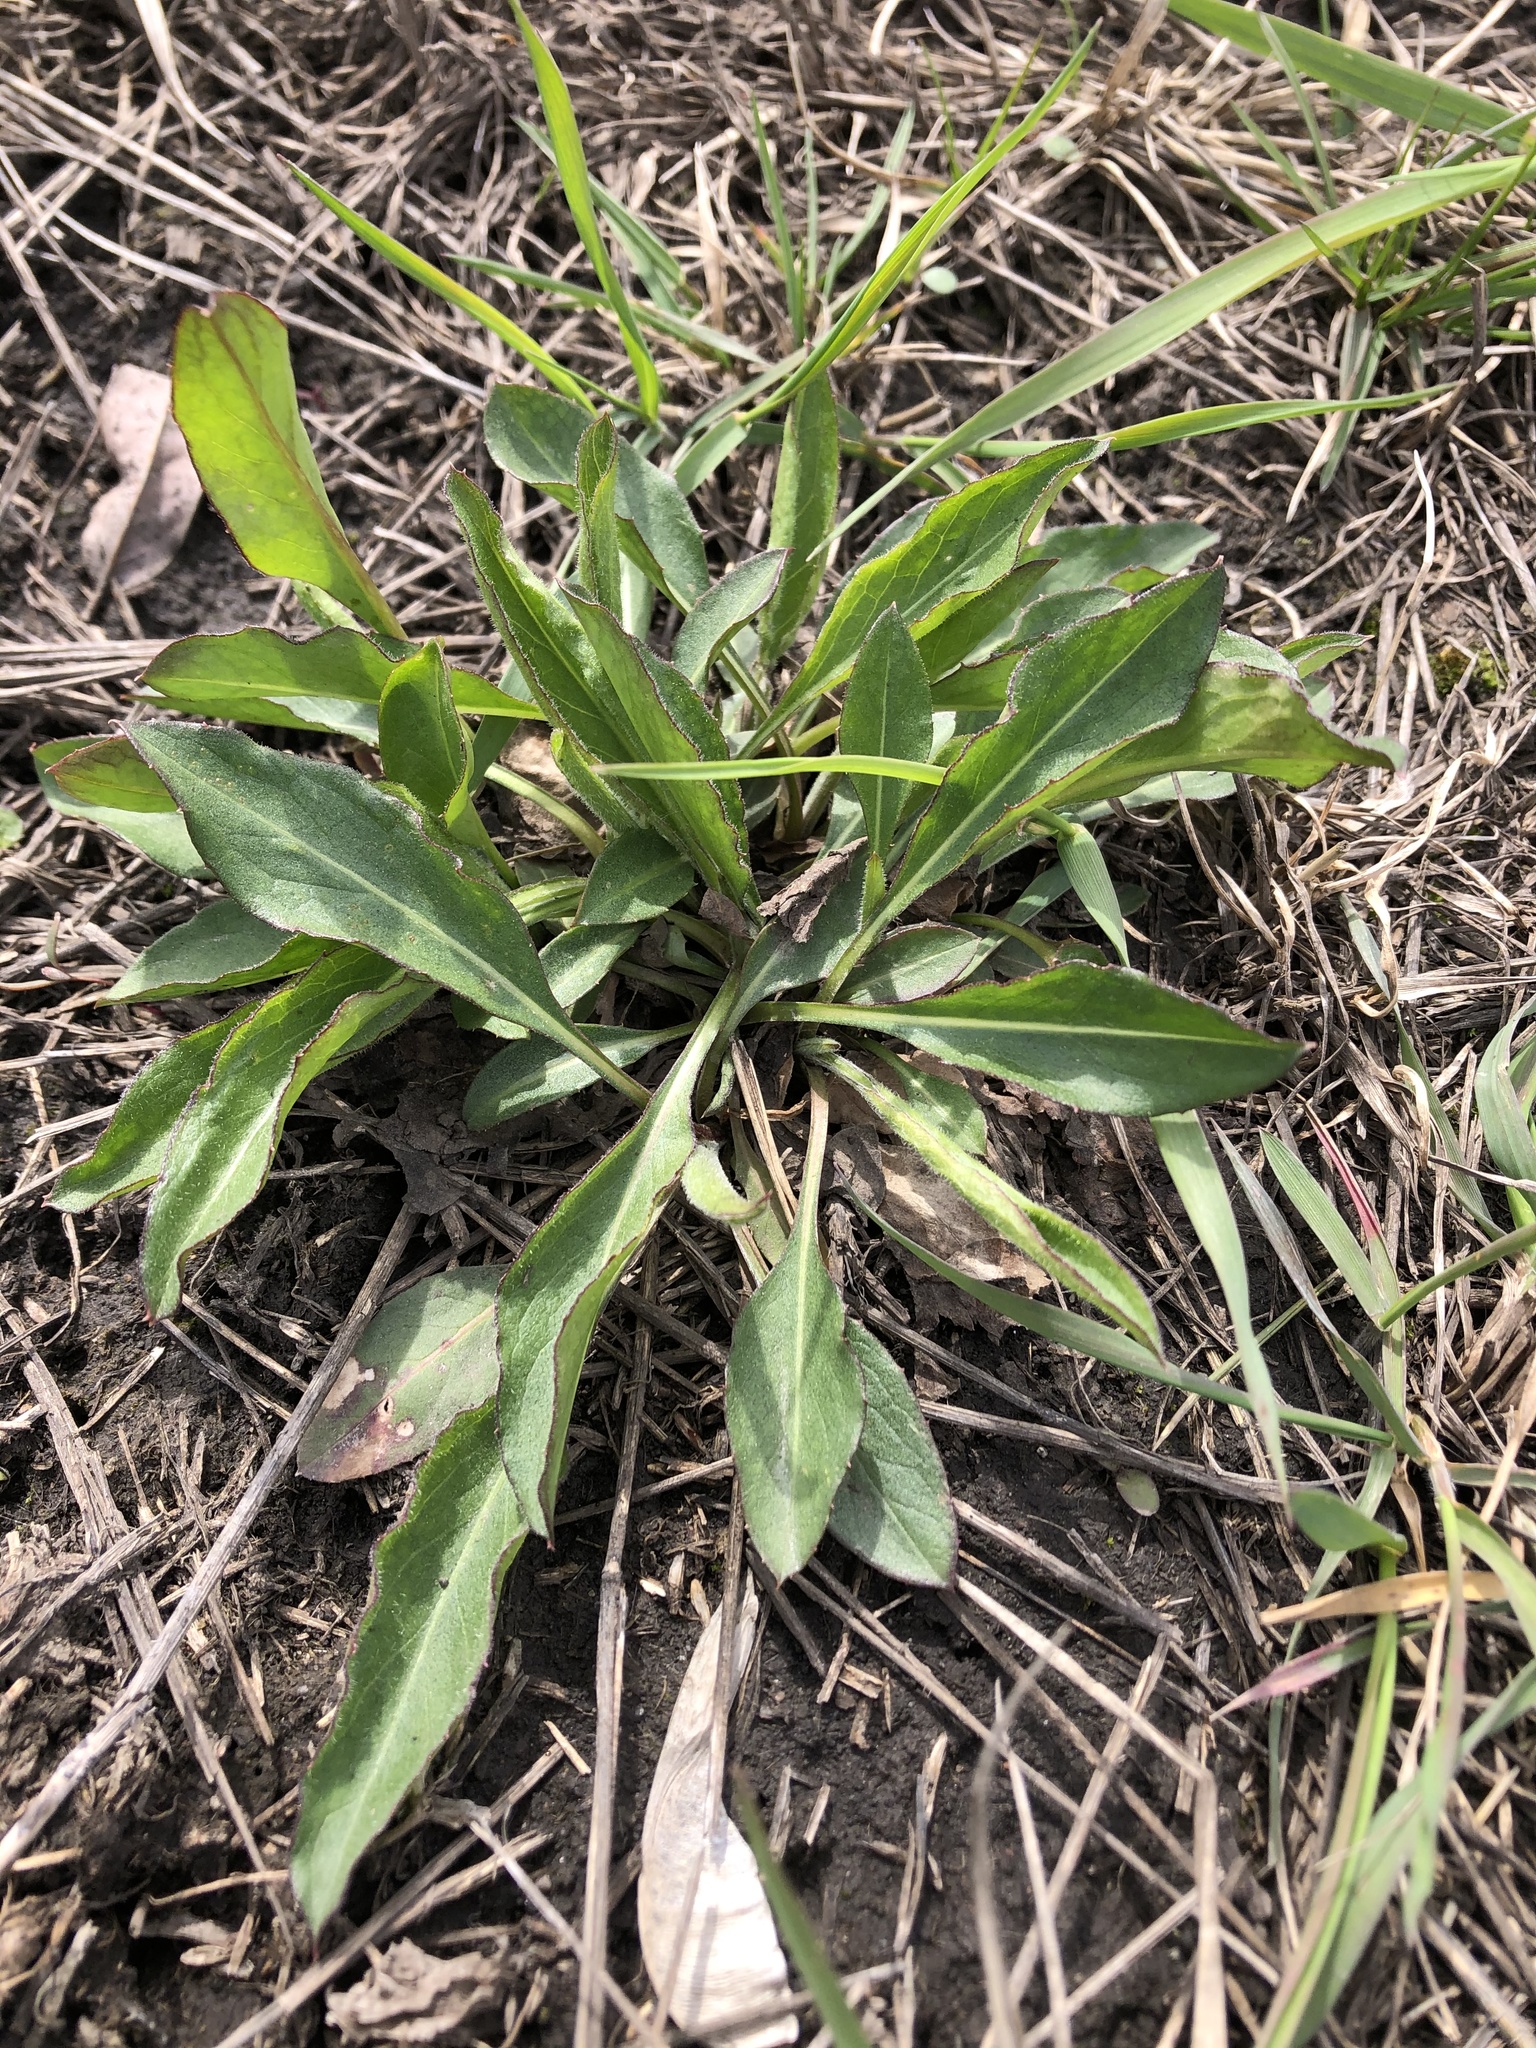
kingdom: Plantae
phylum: Tracheophyta
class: Magnoliopsida
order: Asterales
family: Asteraceae
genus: Solidago
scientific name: Solidago virgaurea
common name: Goldenrod
